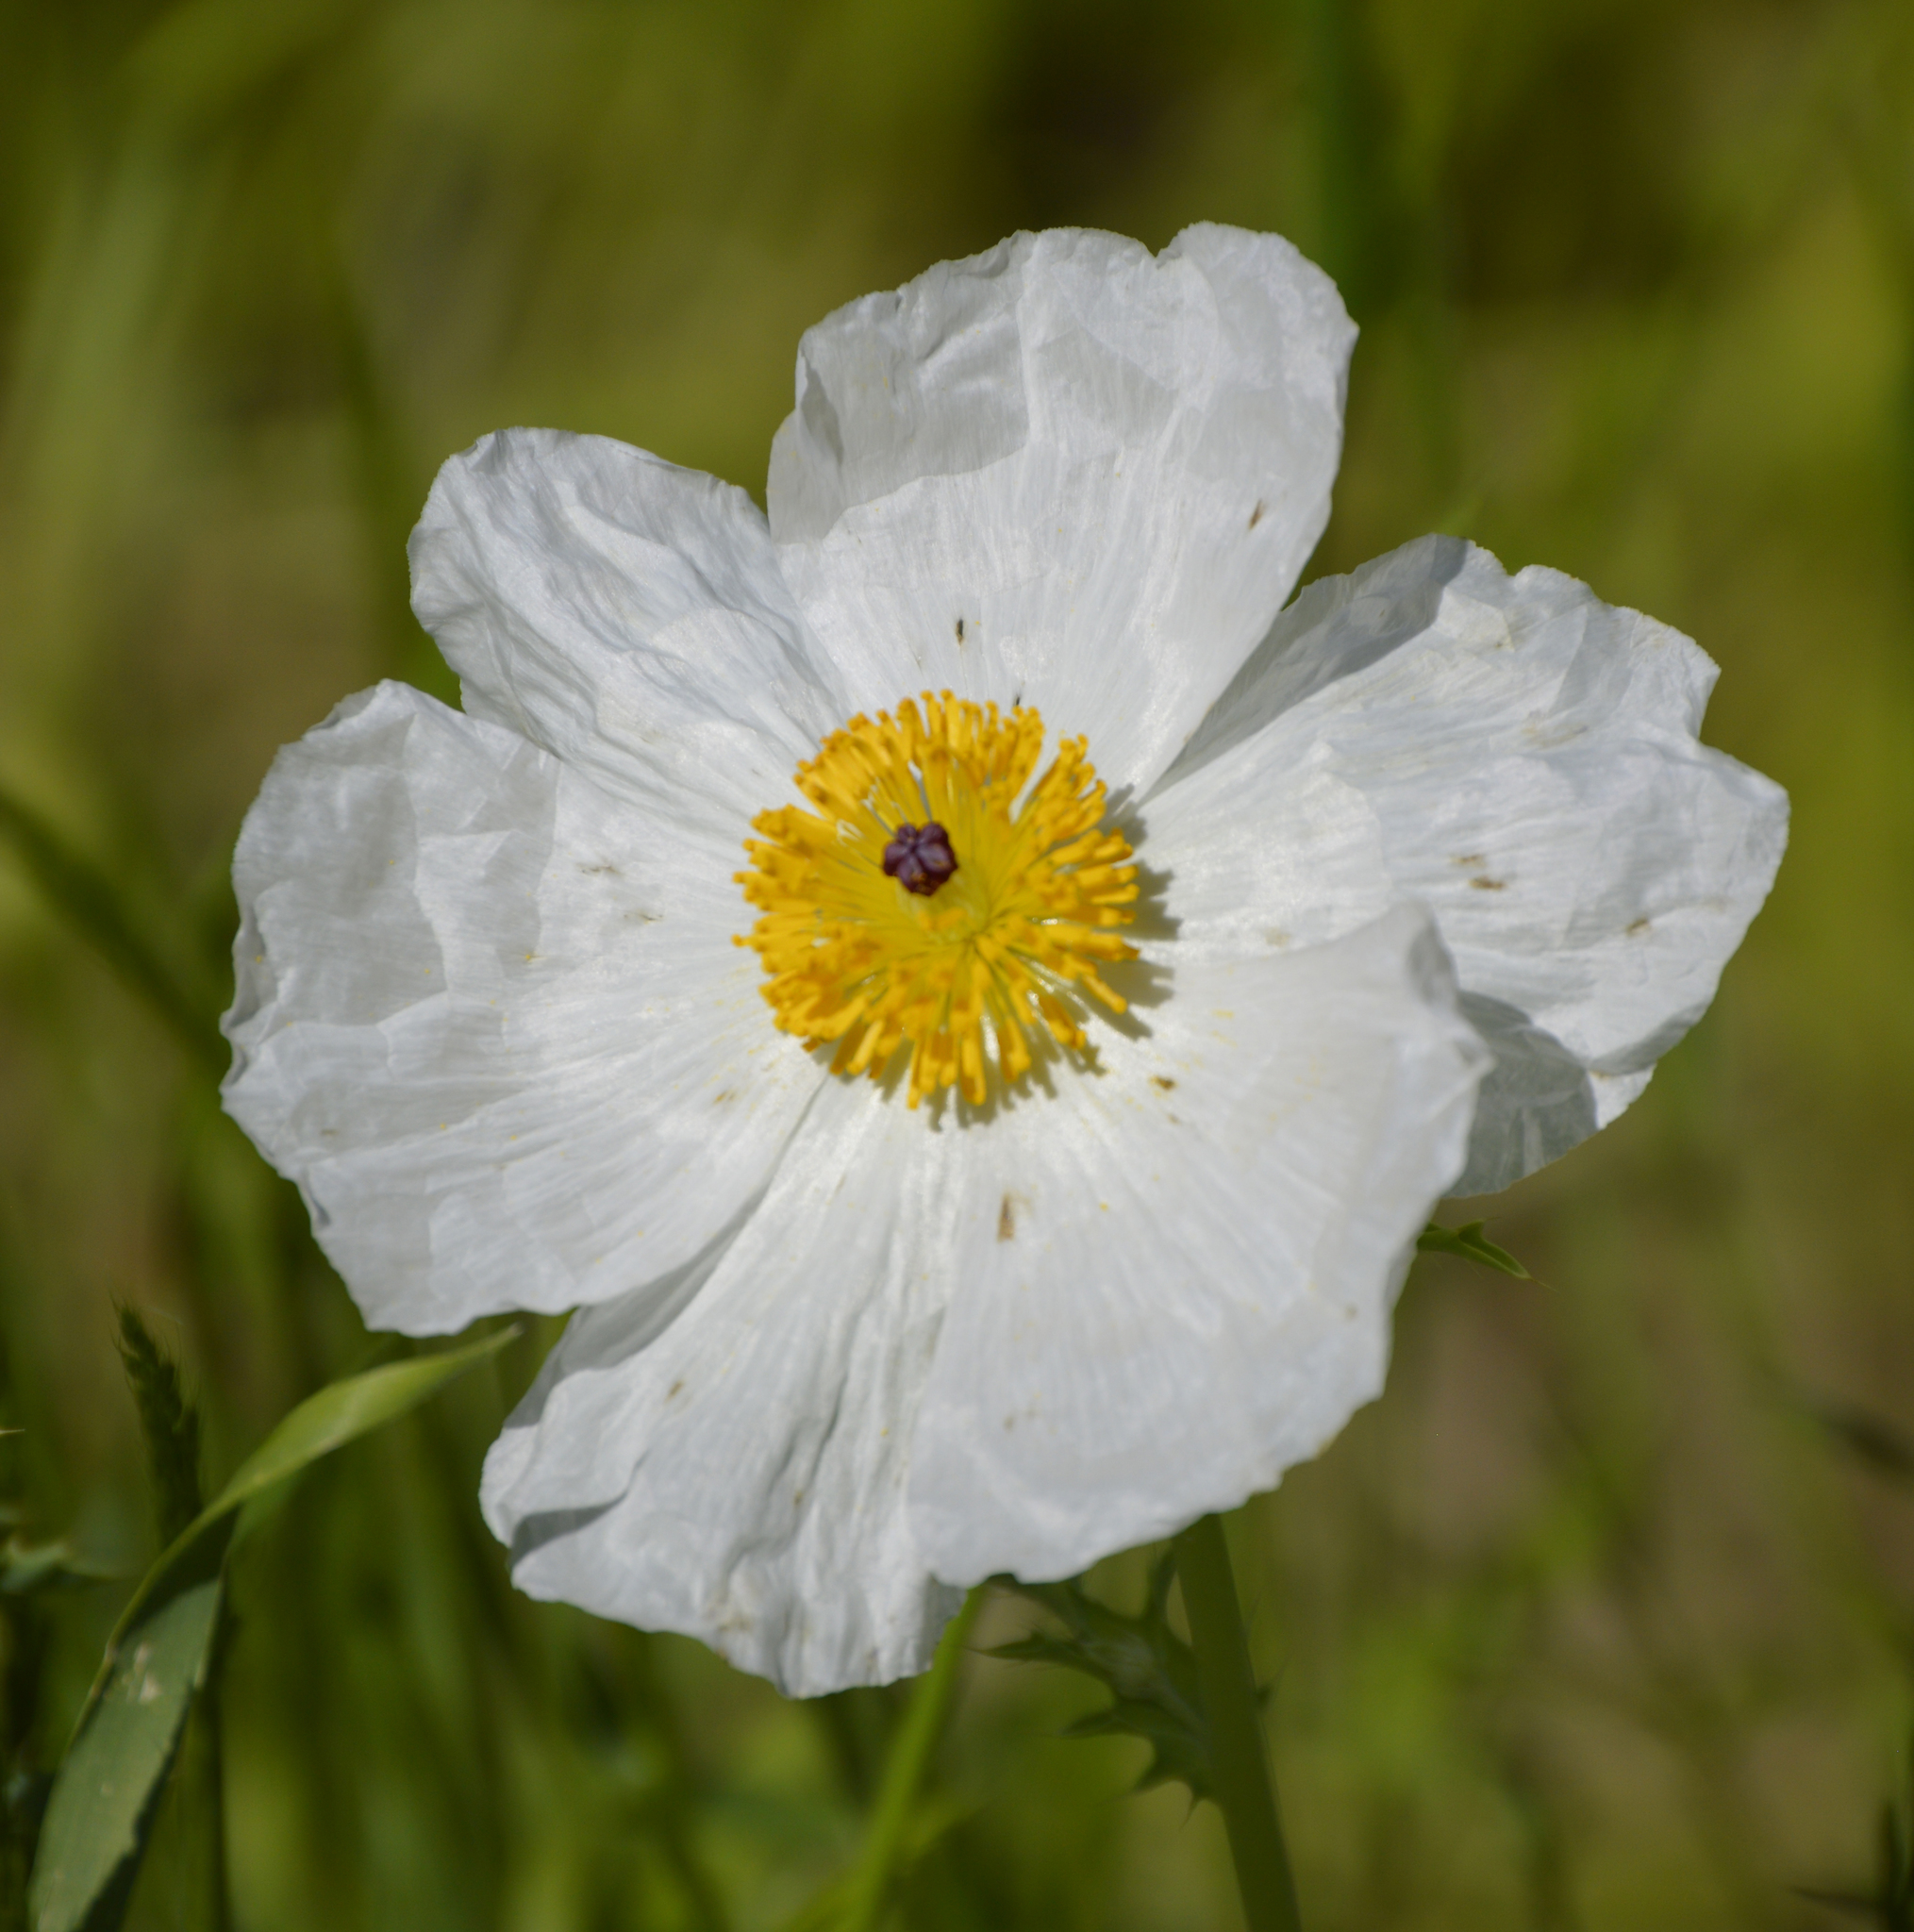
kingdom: Plantae
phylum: Tracheophyta
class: Magnoliopsida
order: Ranunculales
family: Papaveraceae
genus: Argemone
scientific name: Argemone albiflora
